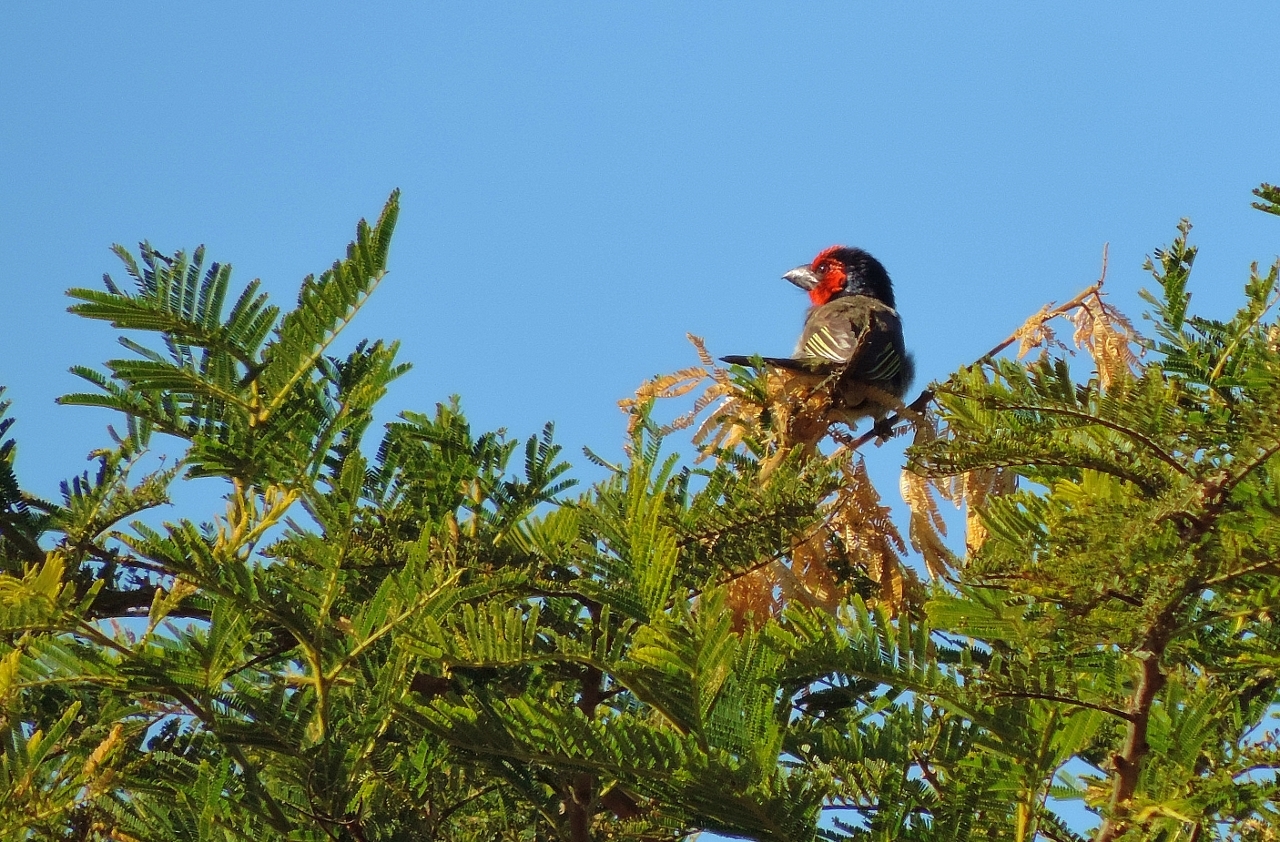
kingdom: Animalia
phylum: Chordata
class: Aves
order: Piciformes
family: Lybiidae
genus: Lybius
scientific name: Lybius torquatus
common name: Black-collared barbet
